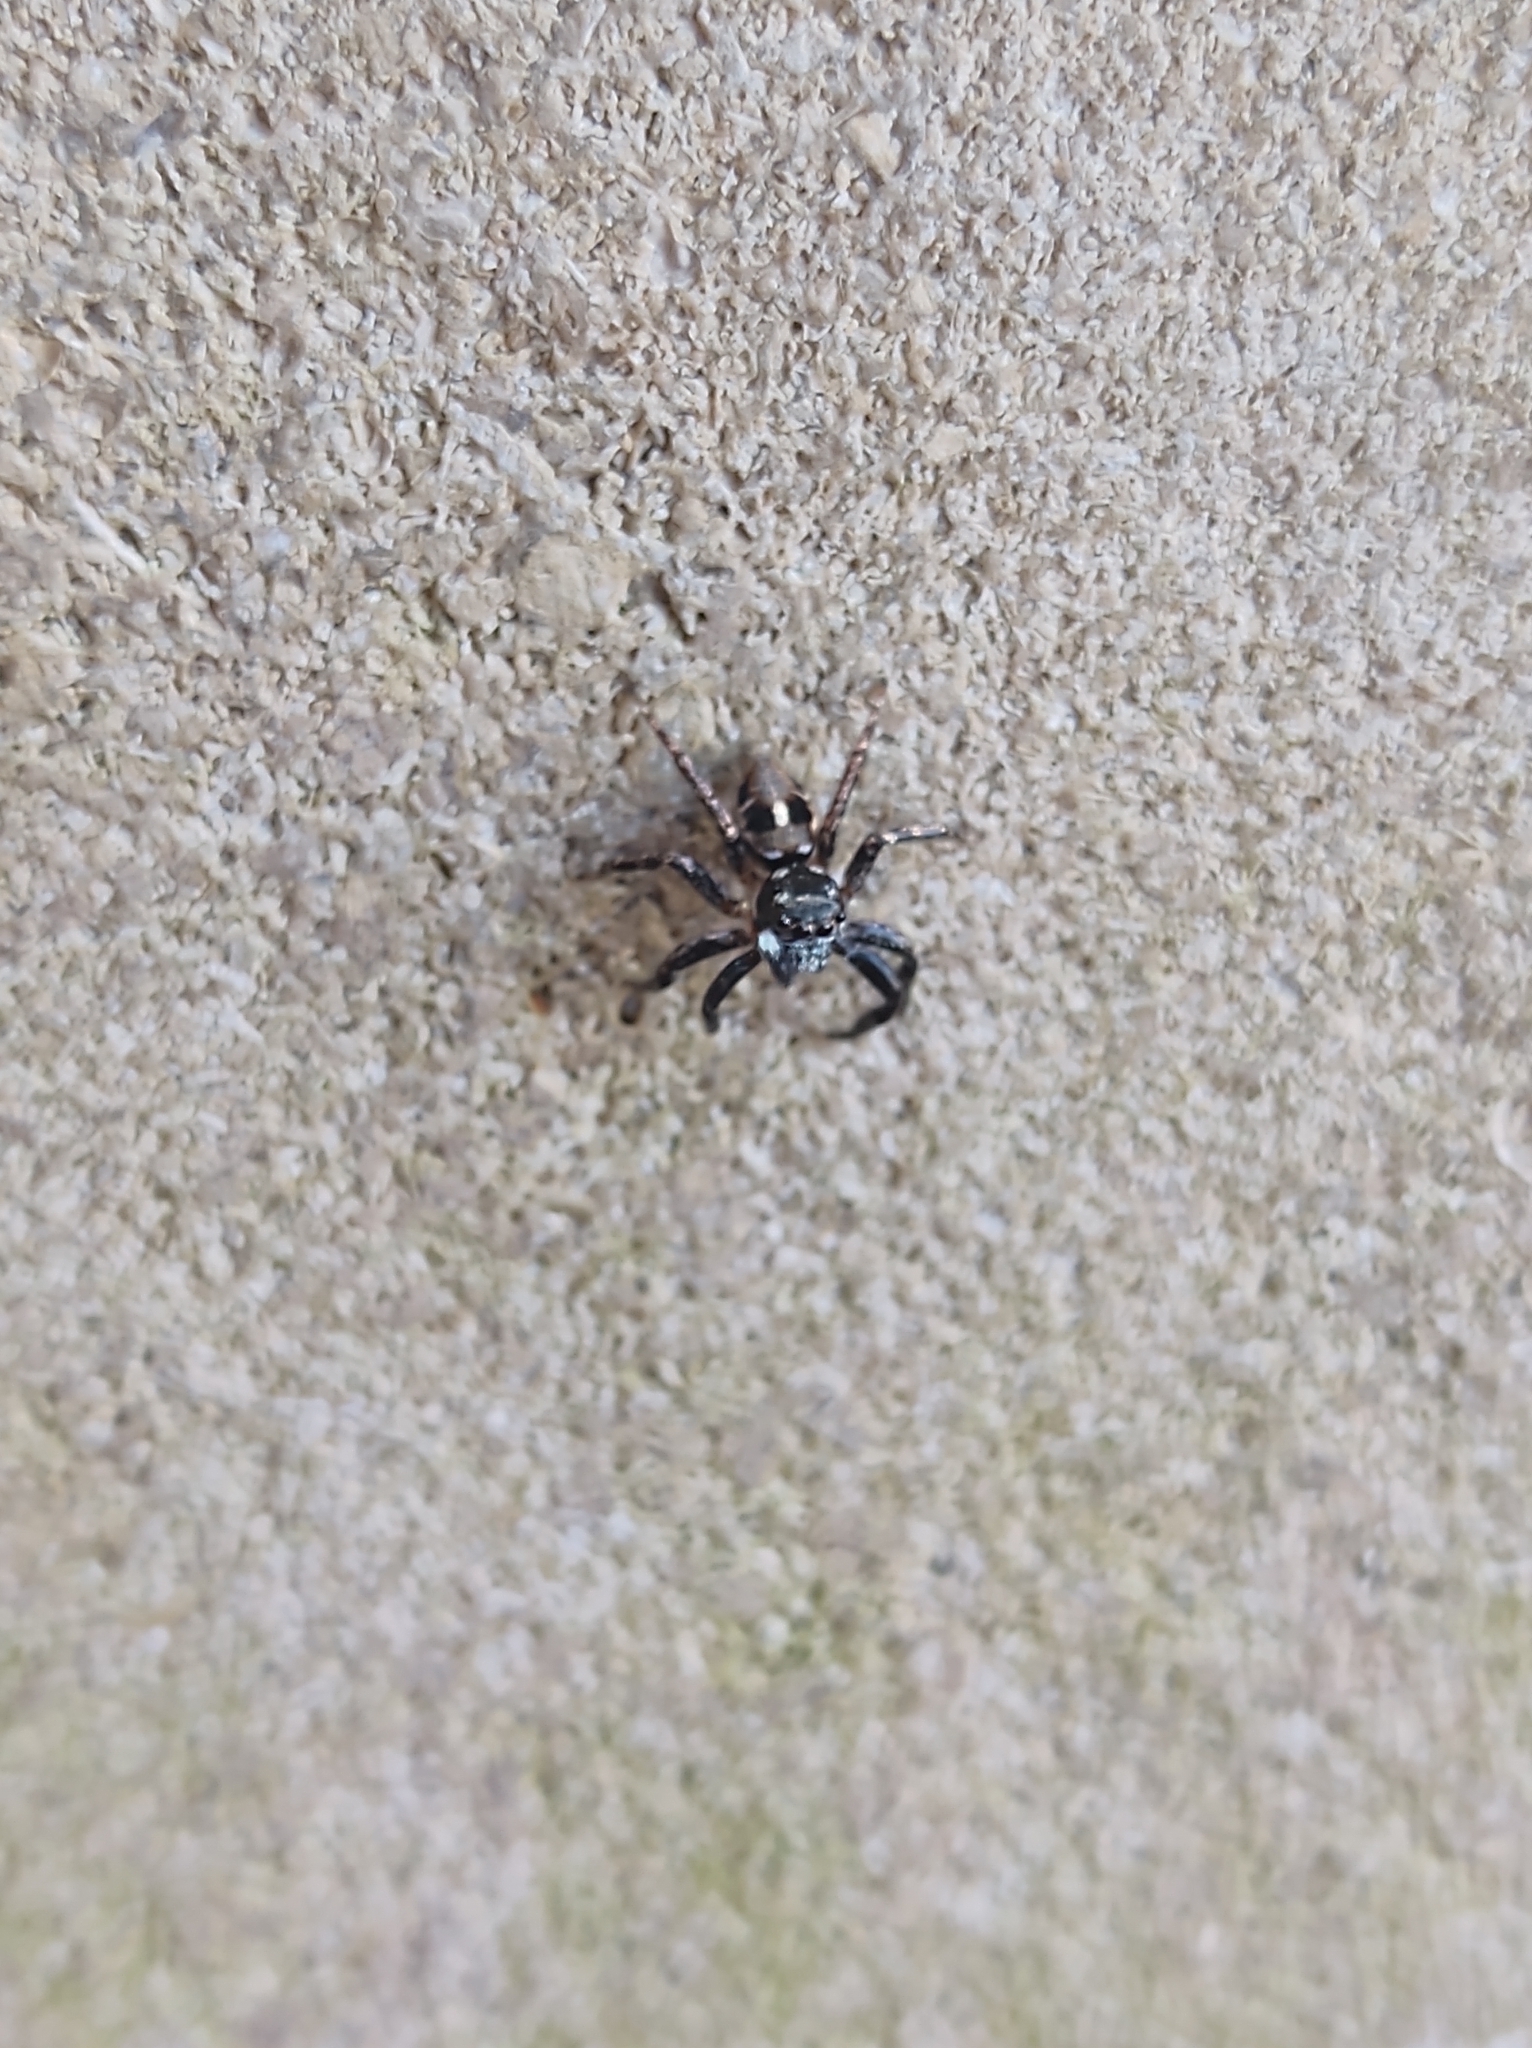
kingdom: Animalia
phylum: Arthropoda
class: Arachnida
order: Araneae
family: Salticidae
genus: Anasaitis
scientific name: Anasaitis canosa
